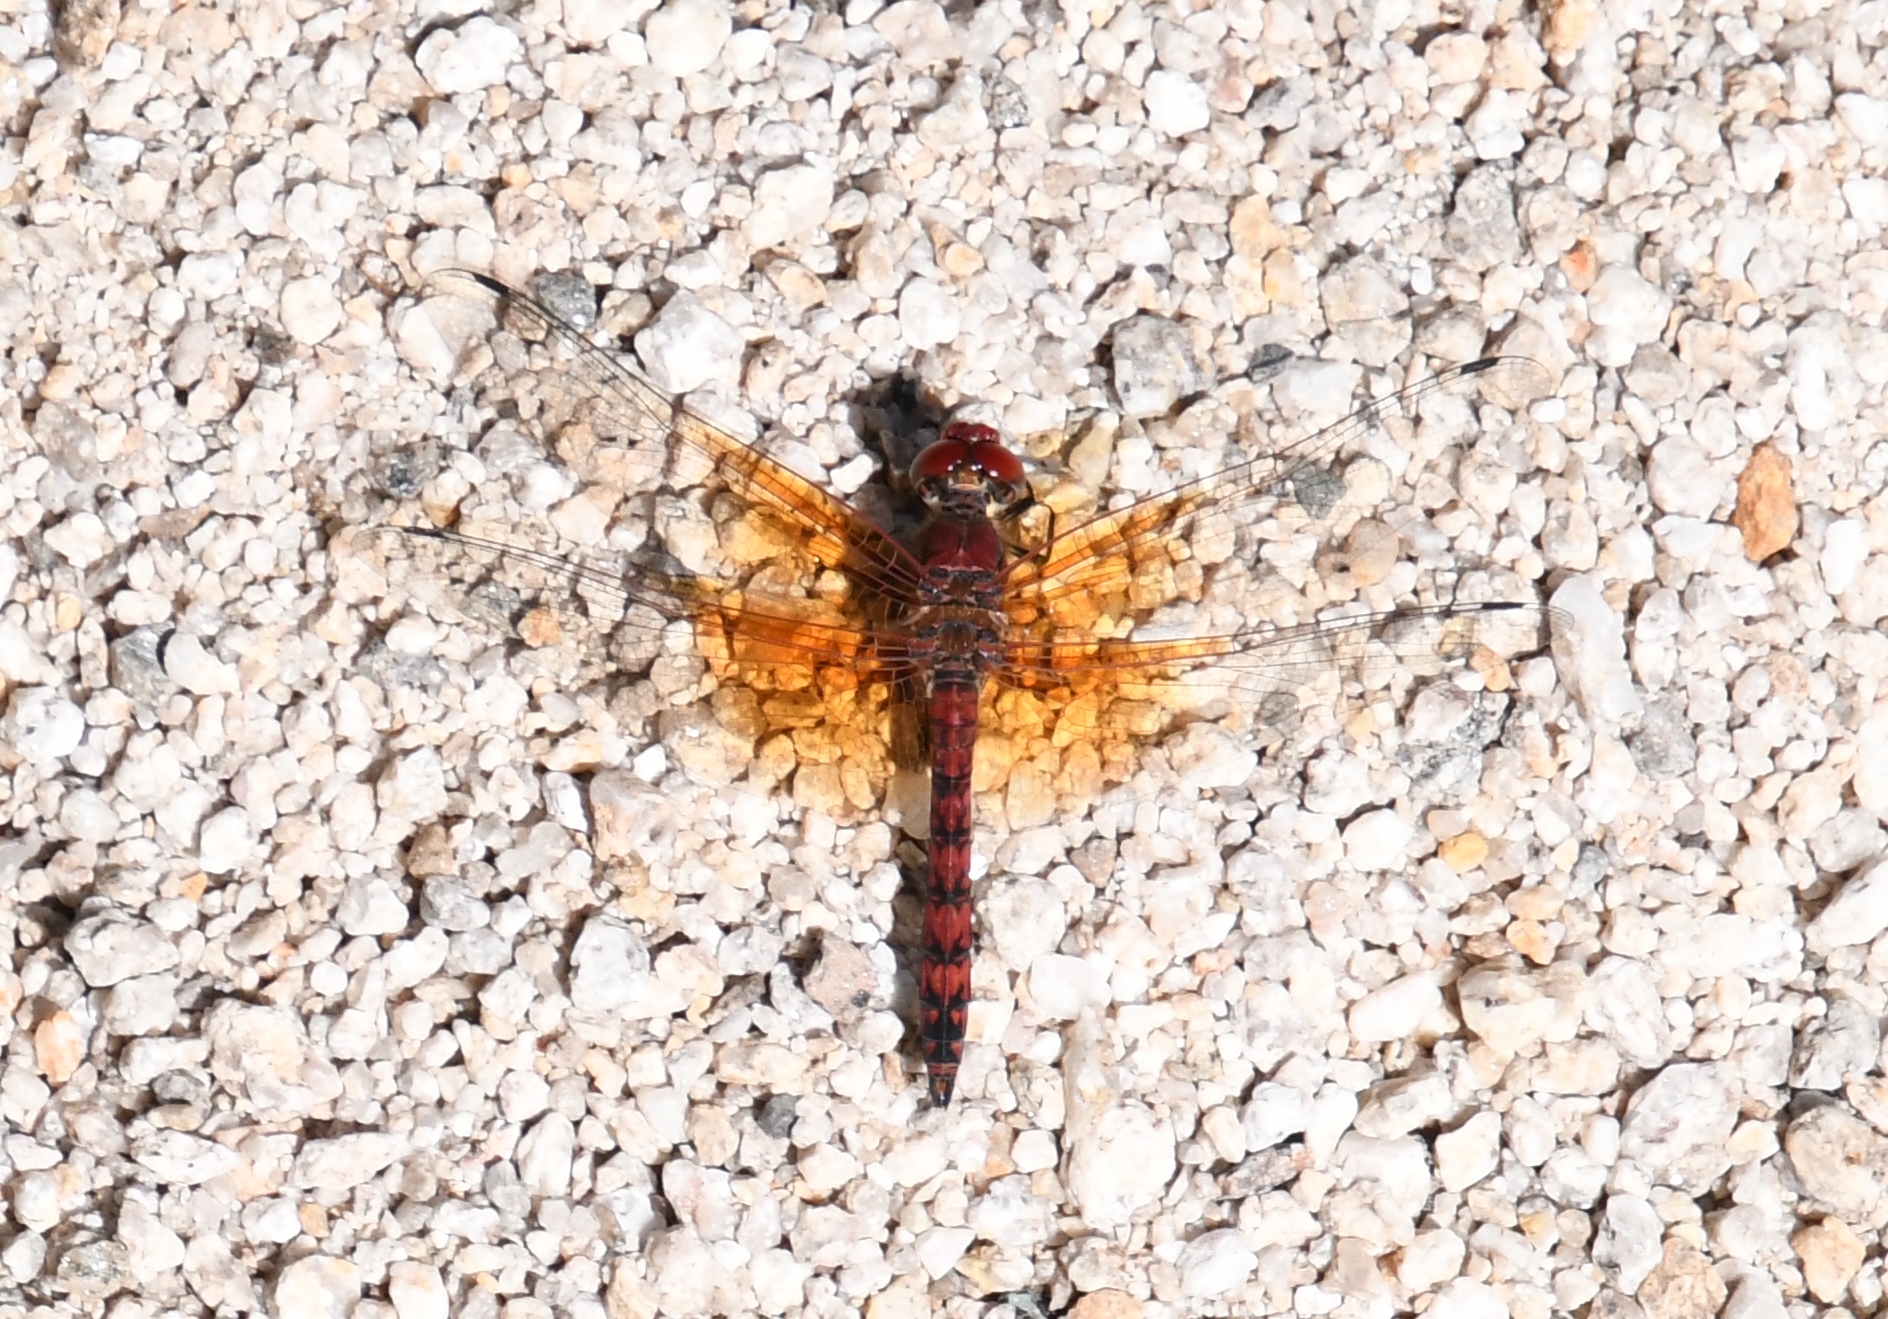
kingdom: Animalia
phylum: Arthropoda
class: Insecta
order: Odonata
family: Libellulidae
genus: Paltothemis
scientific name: Paltothemis lineatipes
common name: Red rock skimmer
